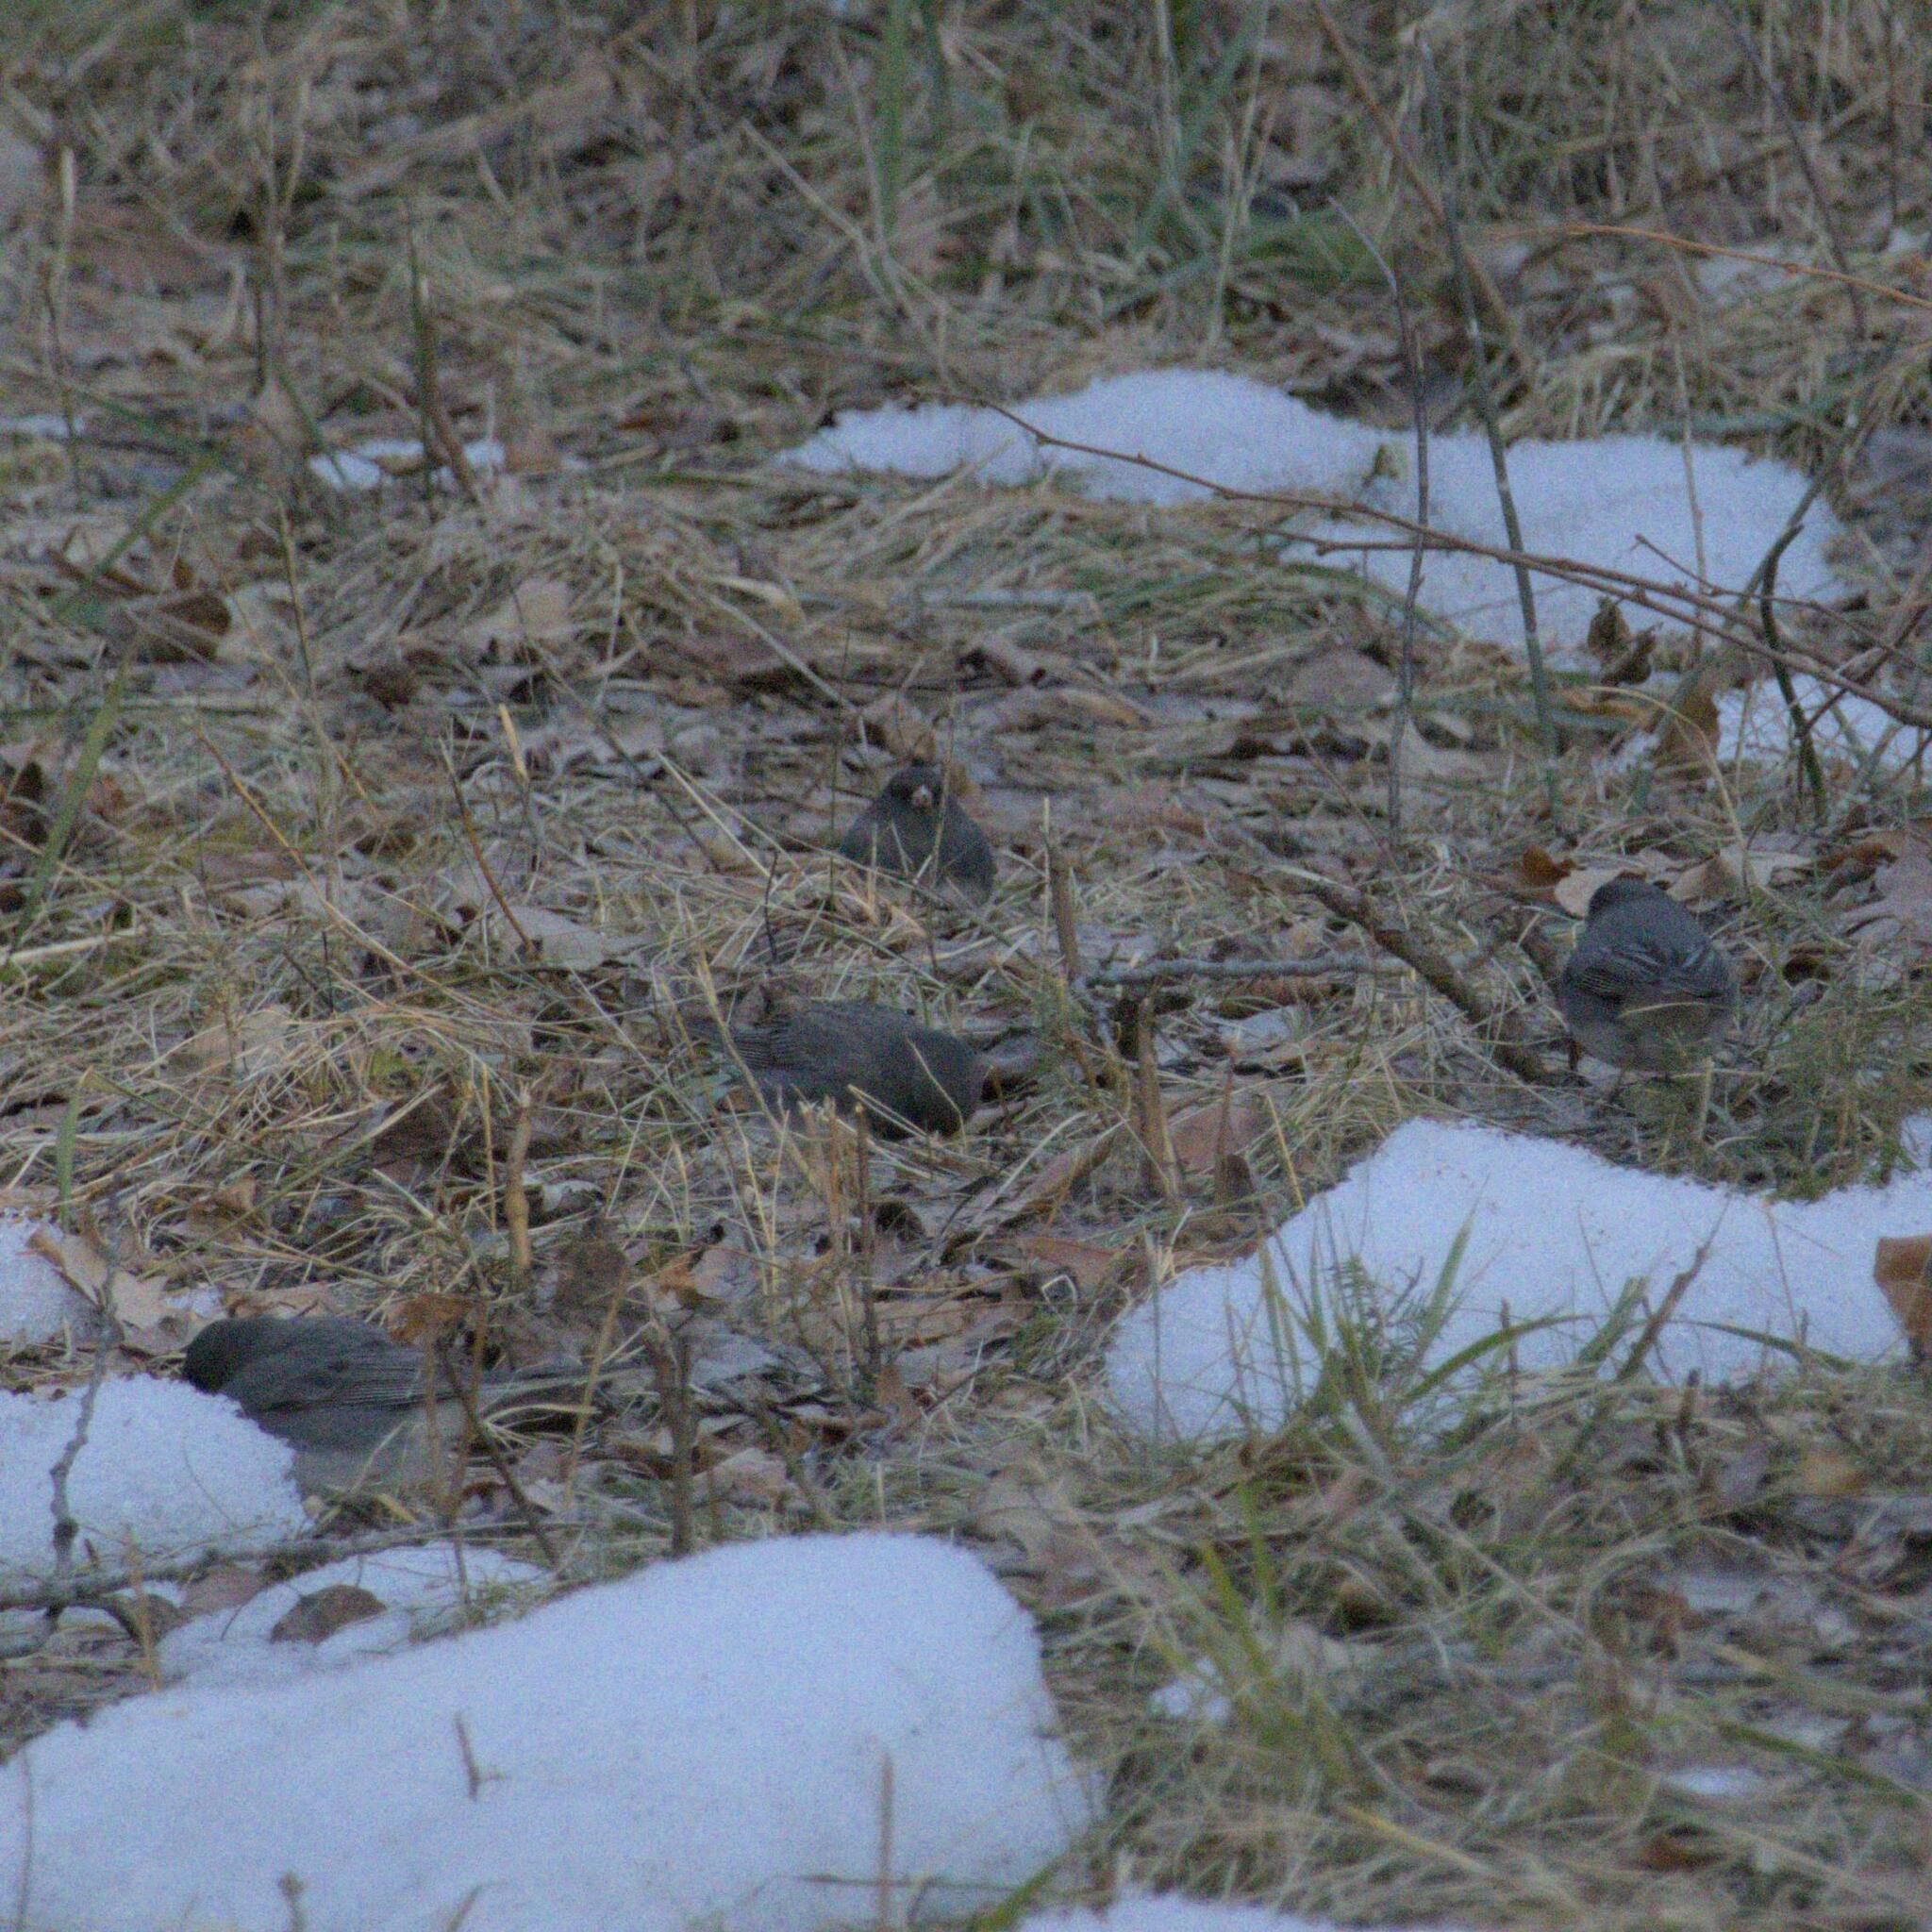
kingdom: Animalia
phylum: Chordata
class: Aves
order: Passeriformes
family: Passerellidae
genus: Junco
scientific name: Junco hyemalis
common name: Dark-eyed junco
